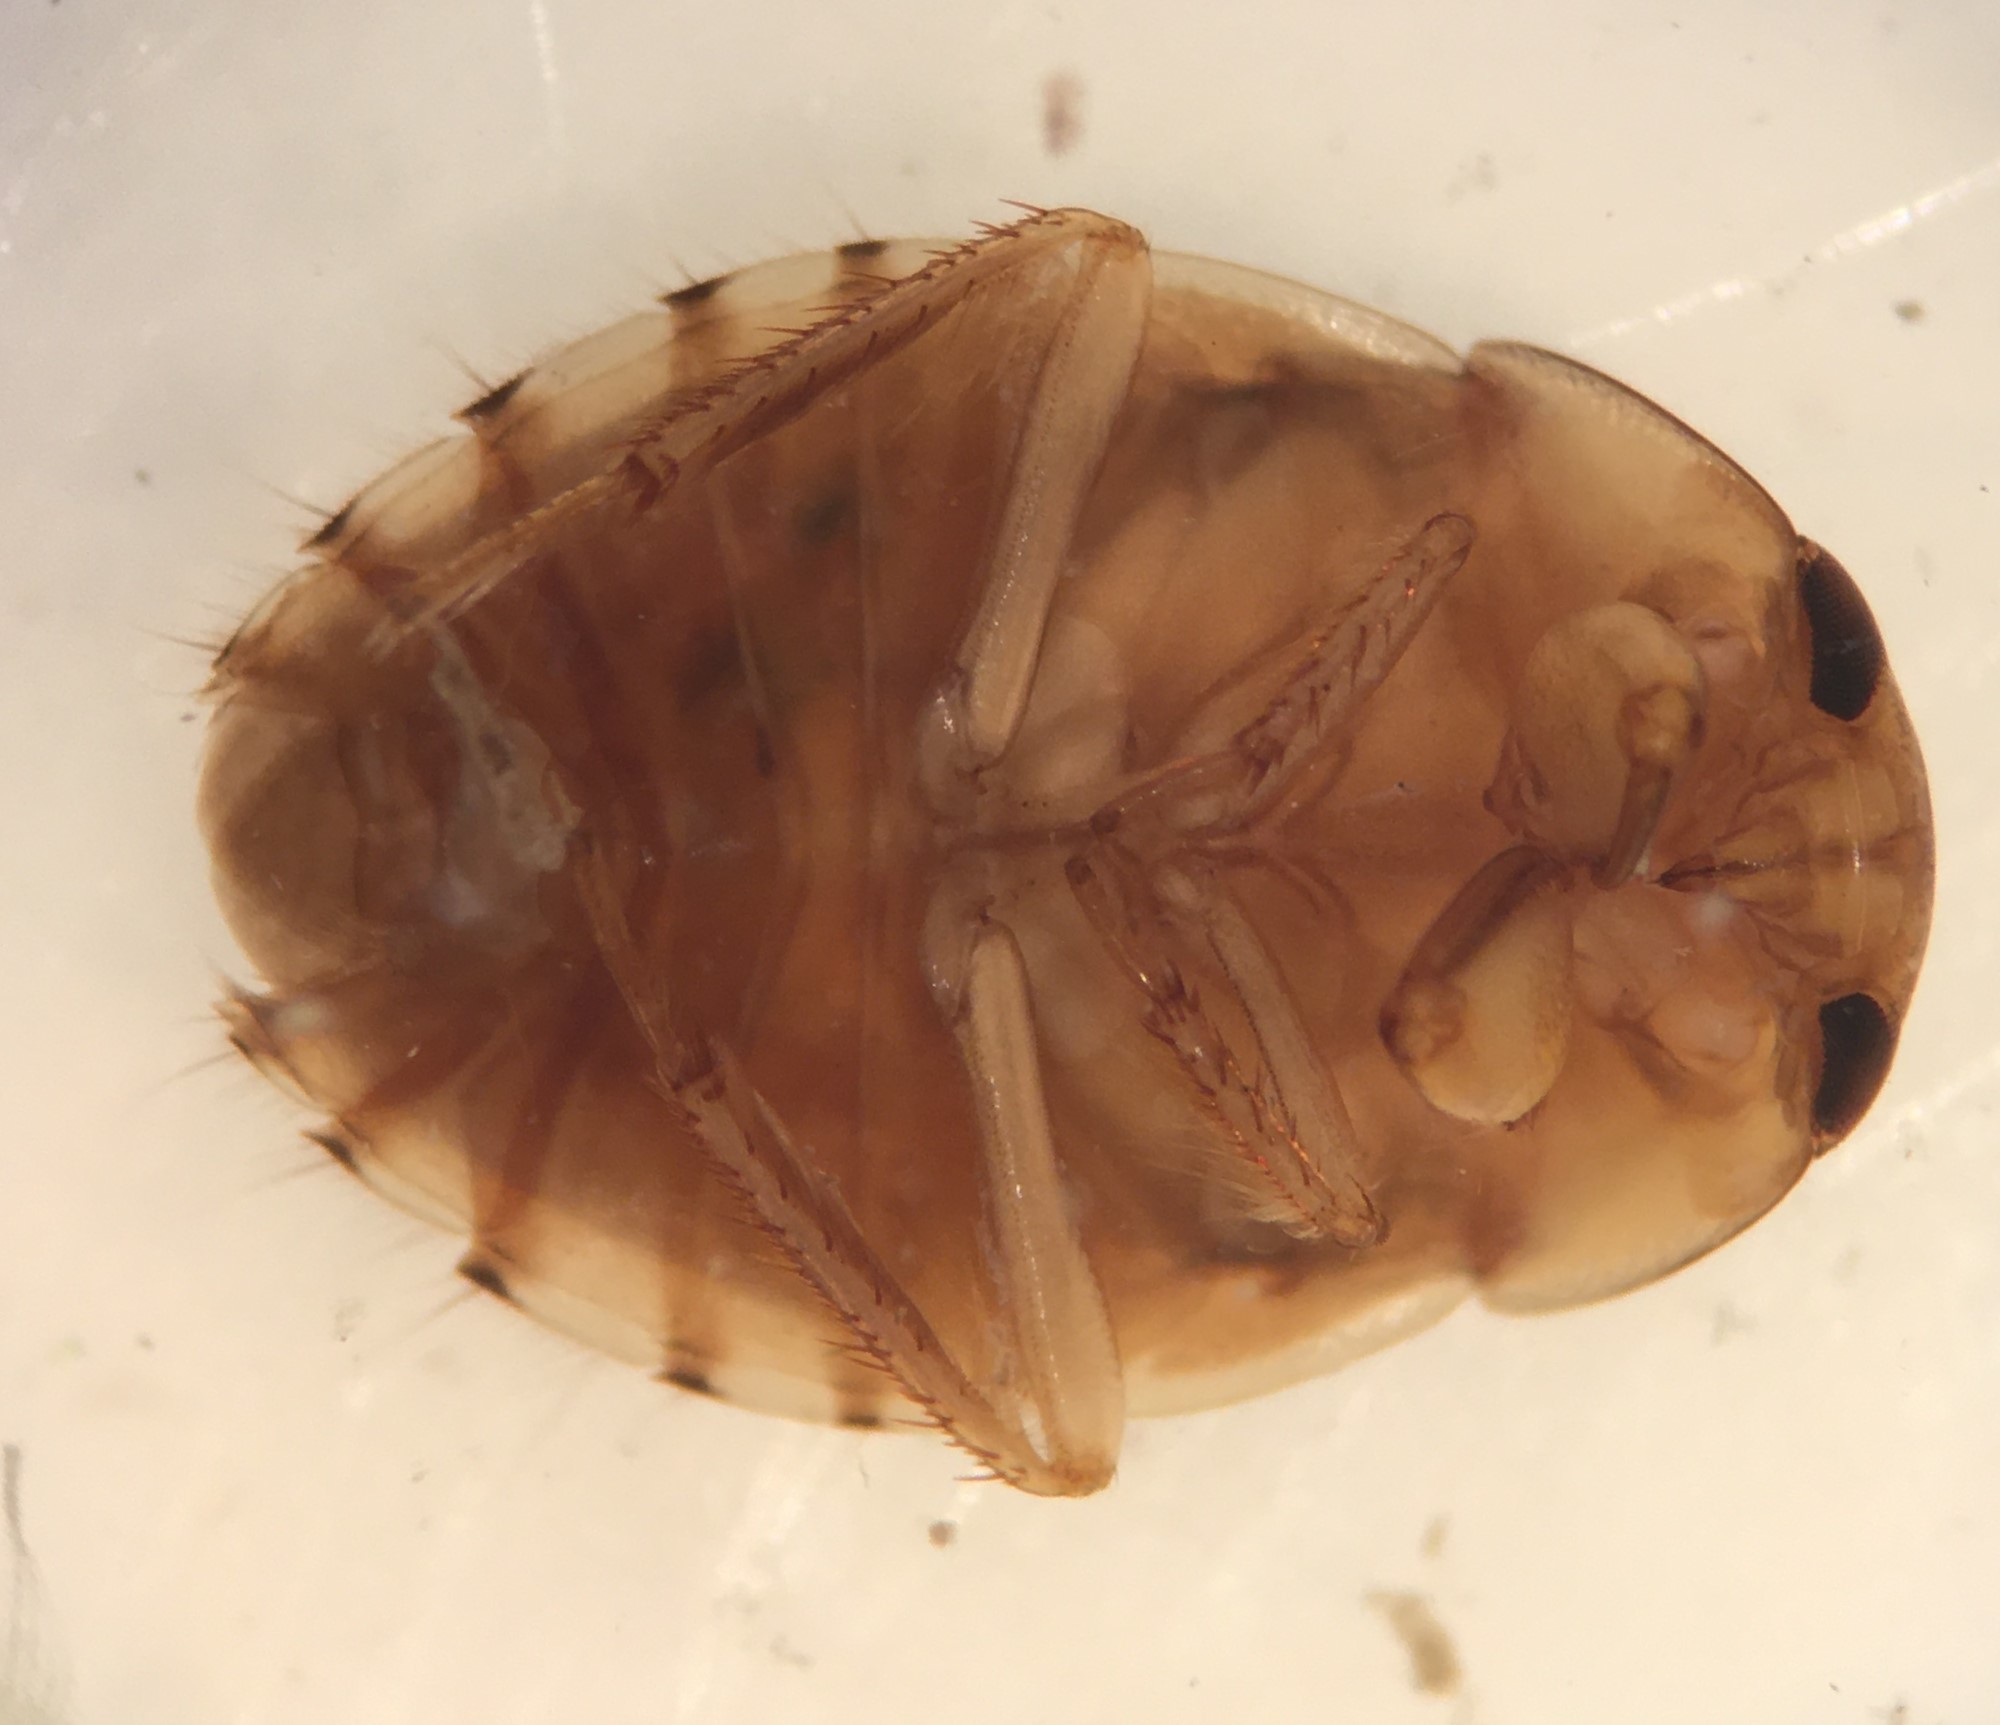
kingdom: Animalia
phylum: Arthropoda
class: Insecta
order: Hemiptera
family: Naucoridae
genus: Pelocoris
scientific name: Pelocoris carolinensis
